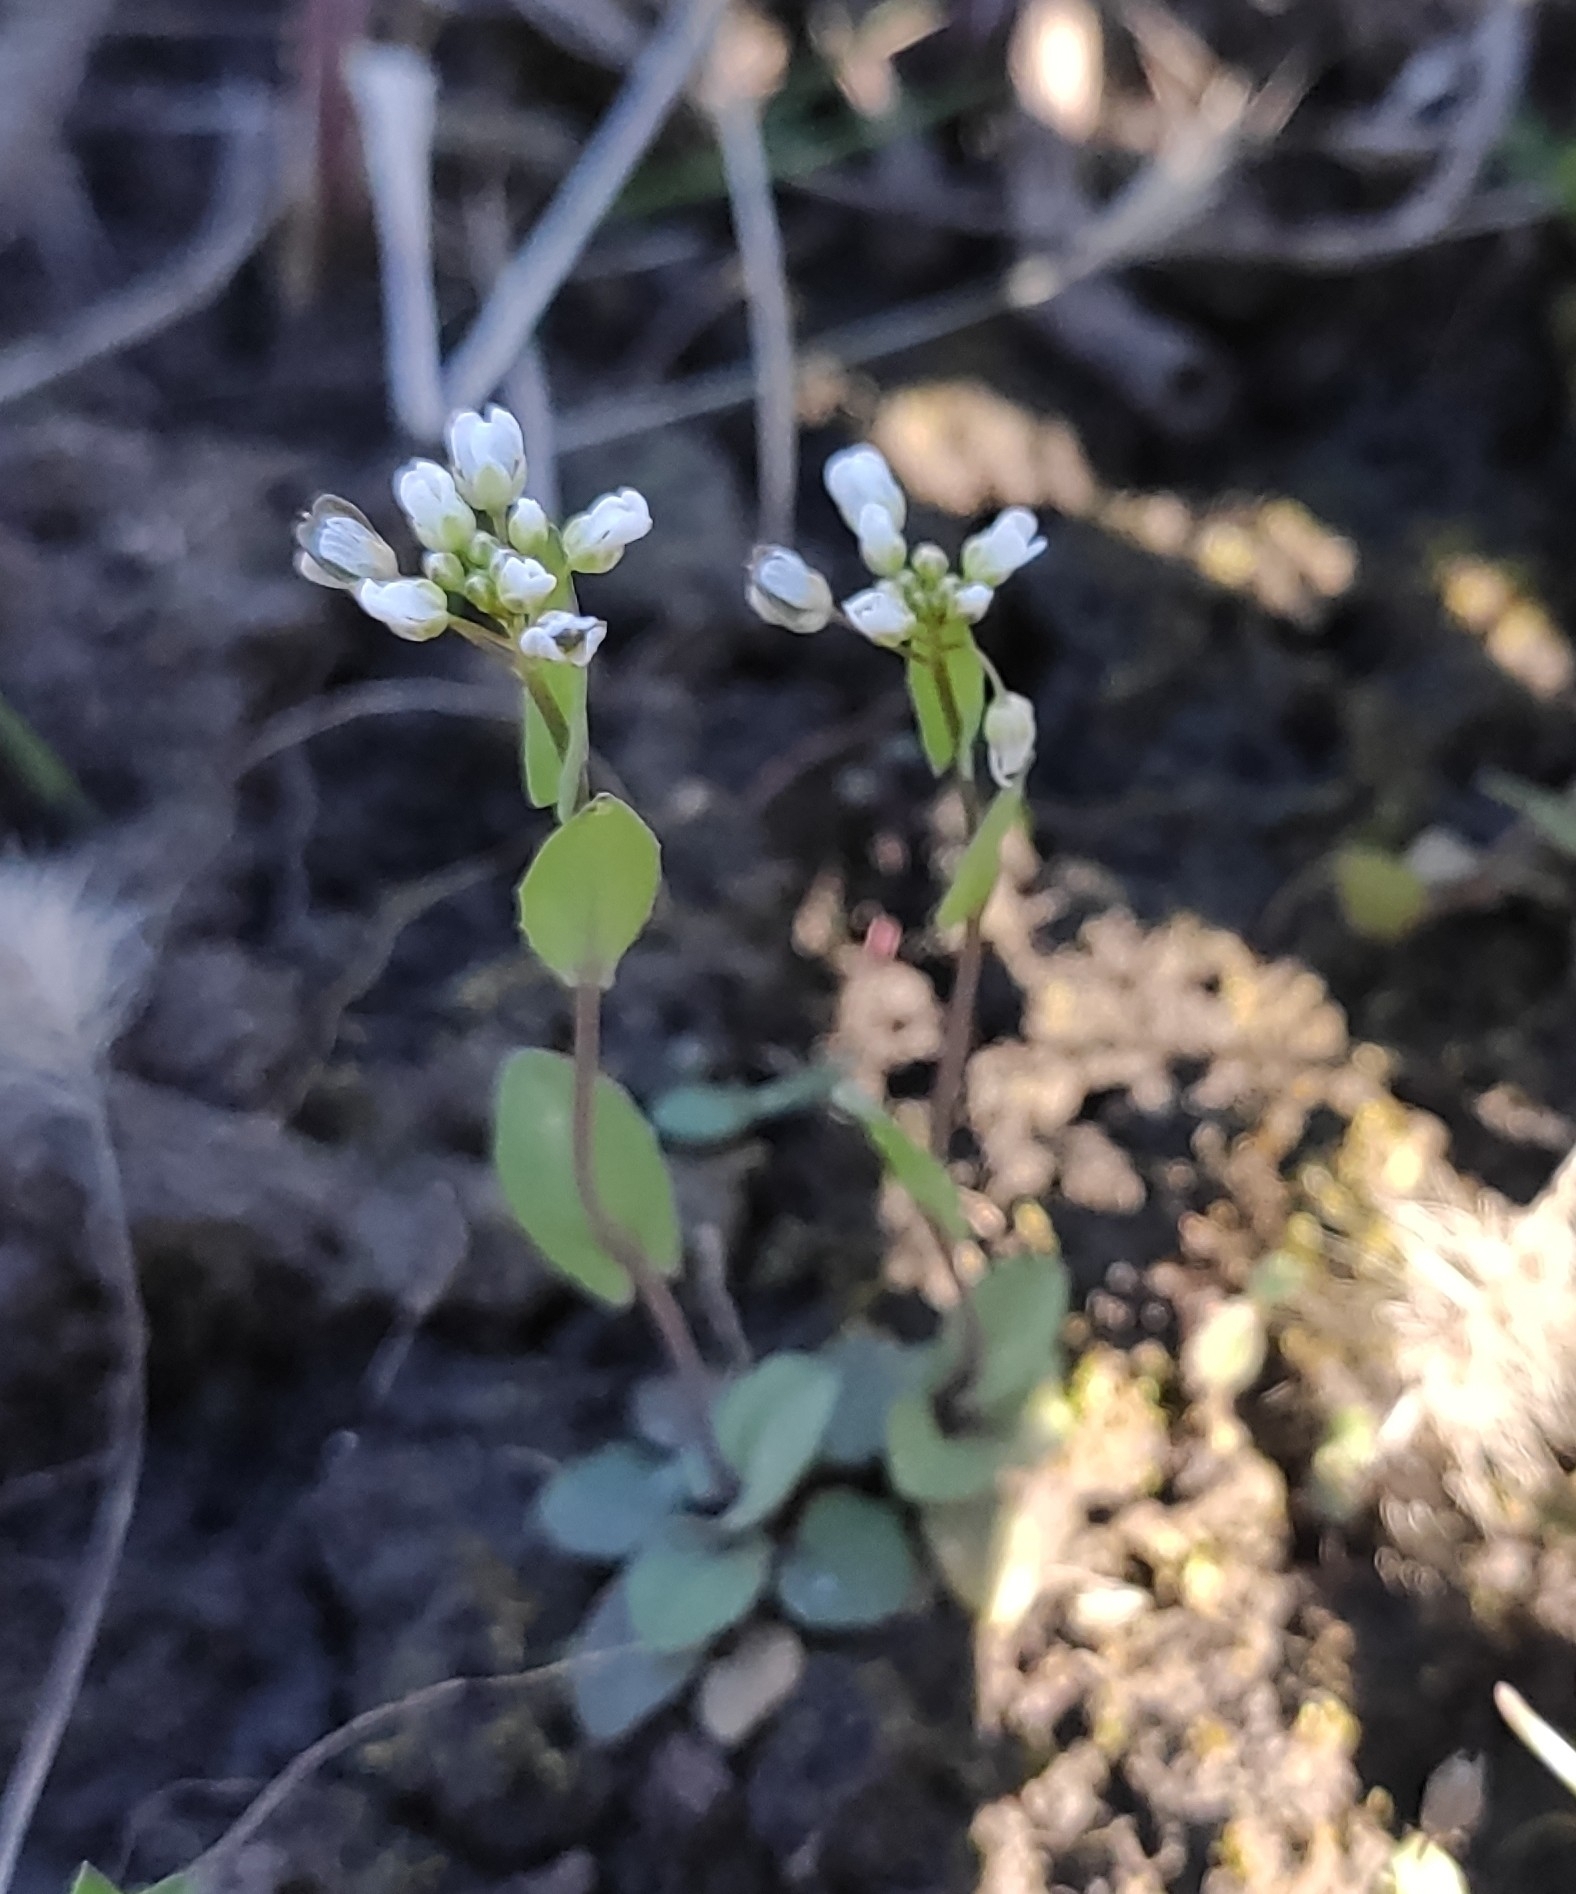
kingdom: Plantae
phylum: Tracheophyta
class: Magnoliopsida
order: Brassicales
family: Brassicaceae
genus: Noccaea
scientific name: Noccaea perfoliata
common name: Perfoliate pennycress
